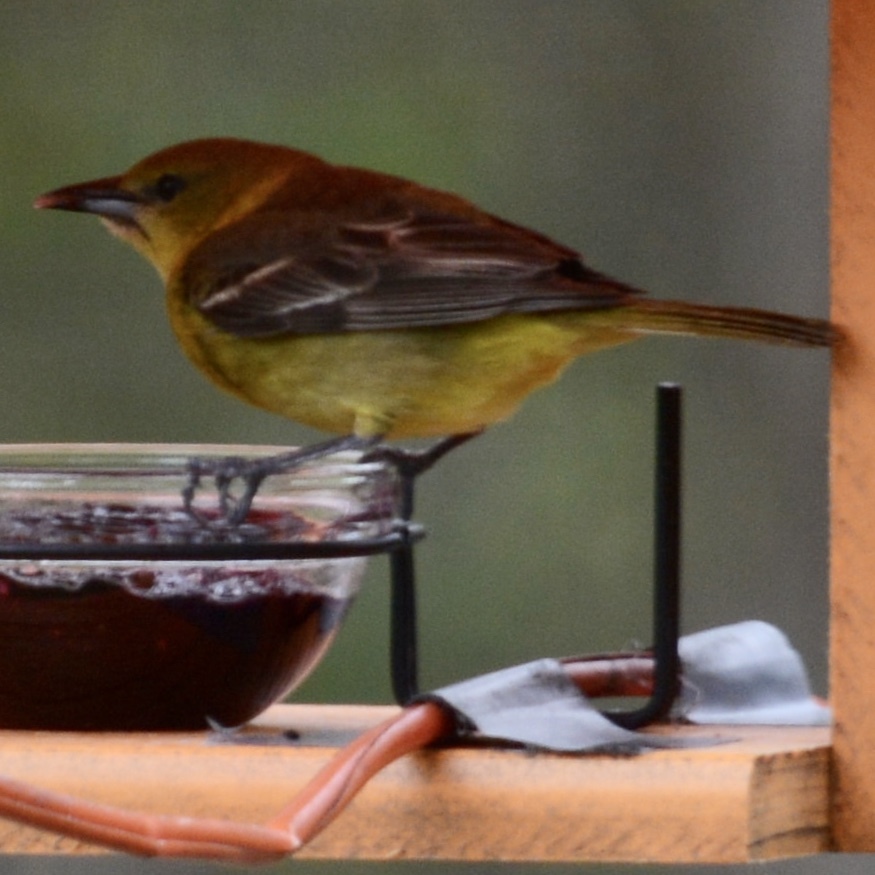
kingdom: Animalia
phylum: Chordata
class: Aves
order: Passeriformes
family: Icteridae
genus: Icterus
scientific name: Icterus galbula
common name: Baltimore oriole
